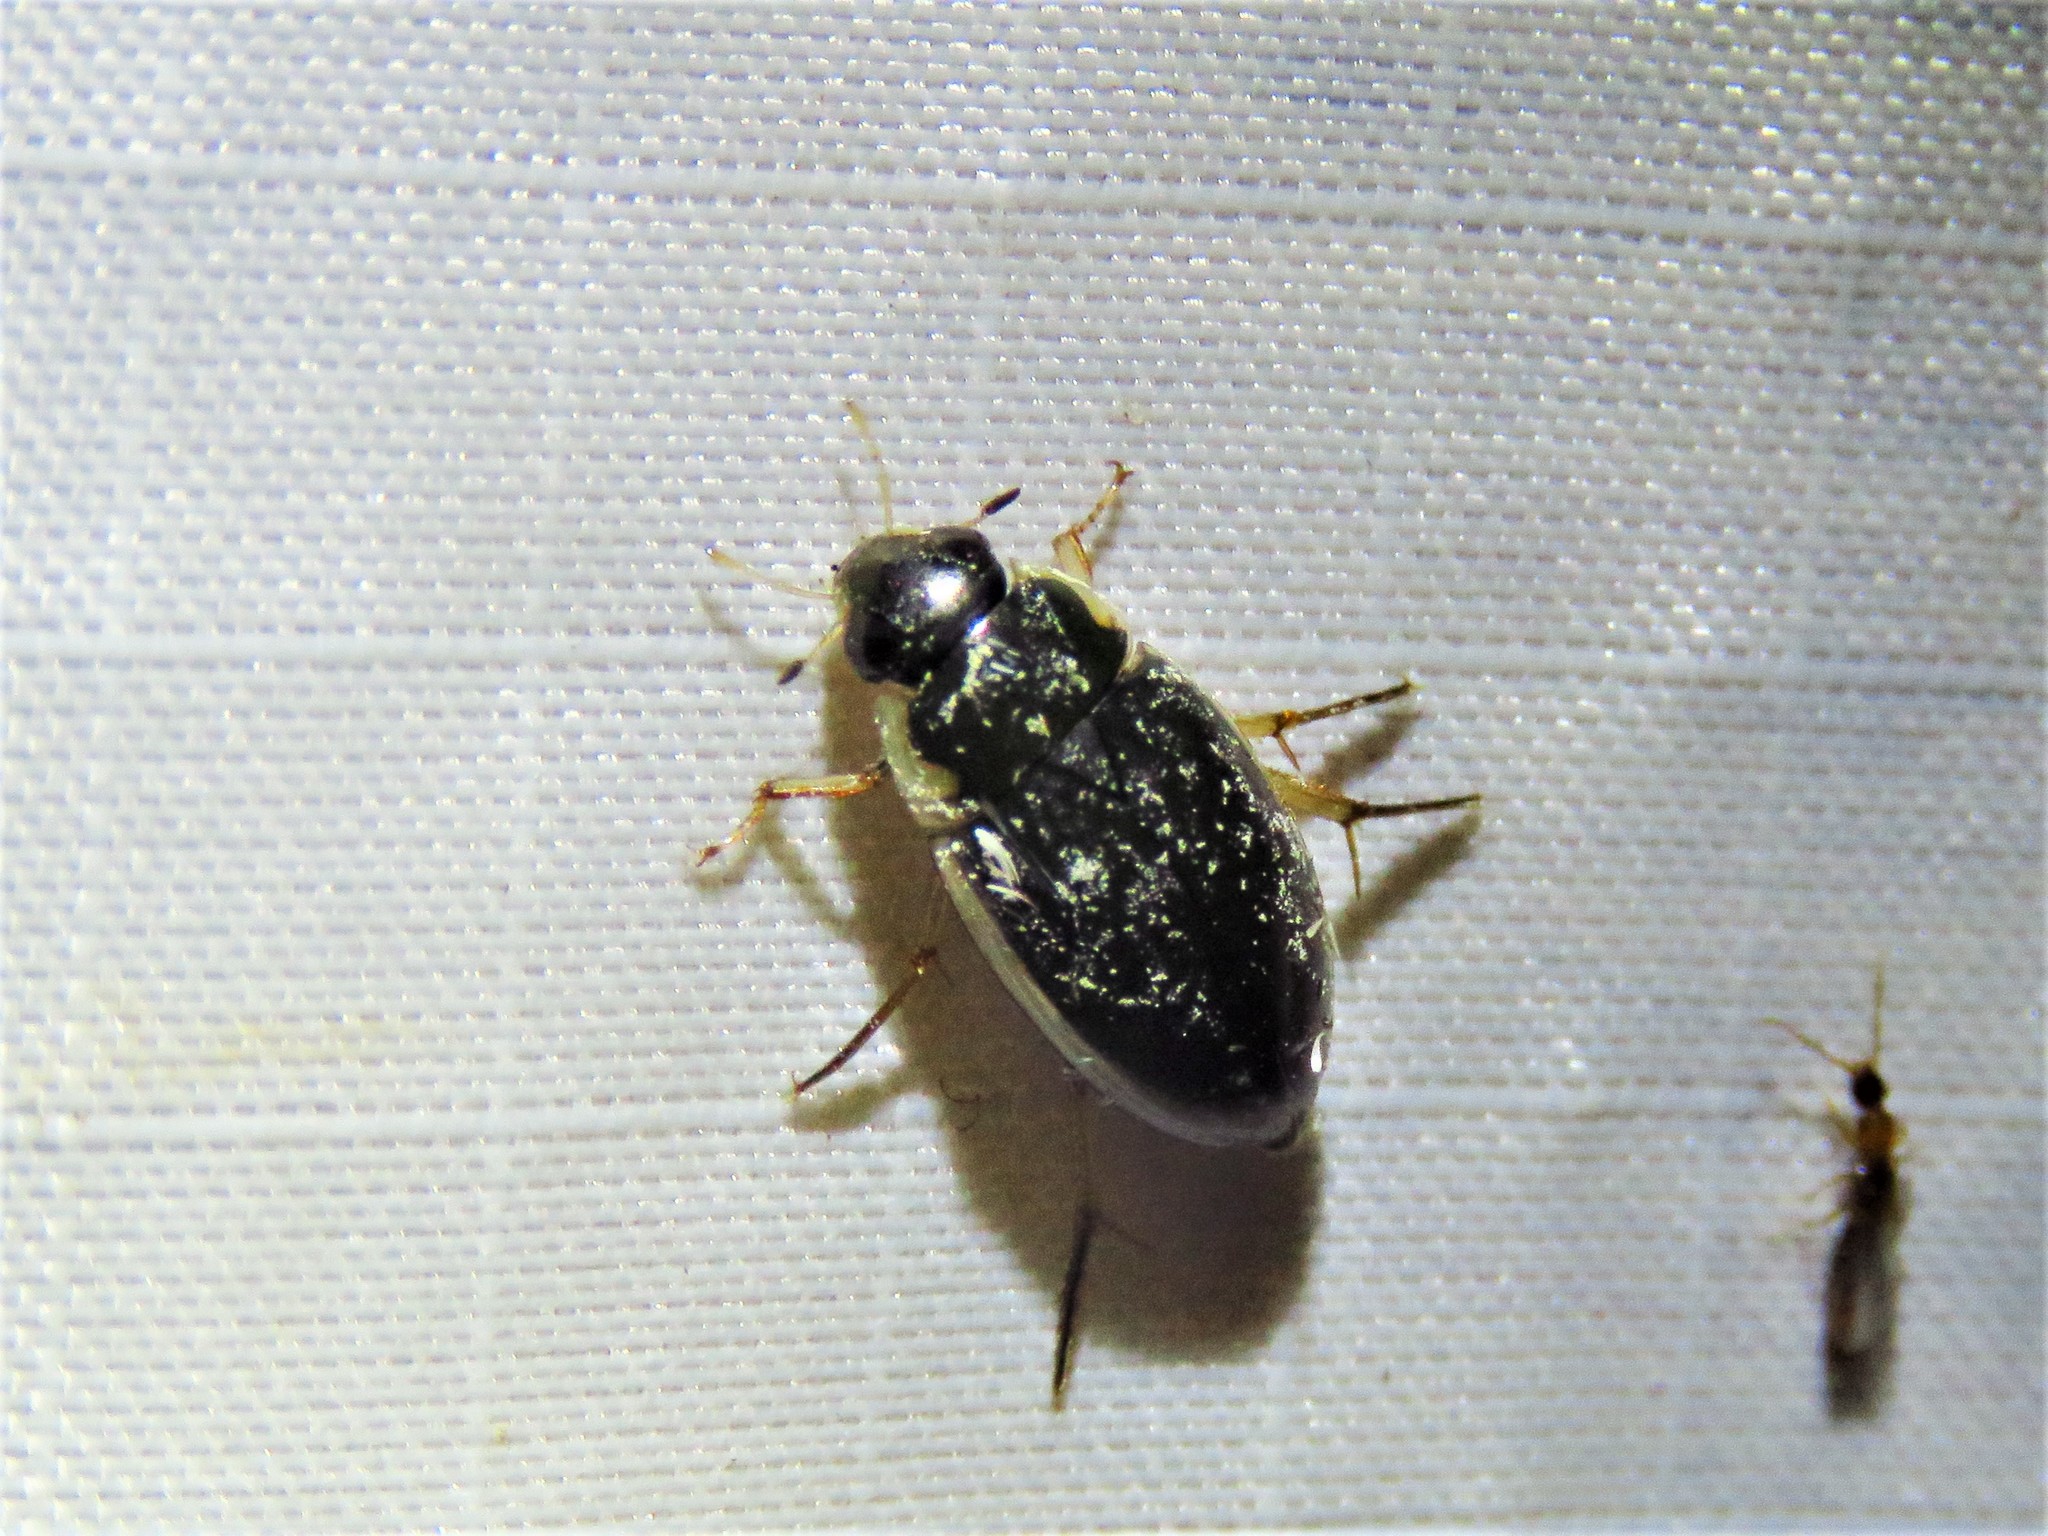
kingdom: Animalia
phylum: Arthropoda
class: Insecta
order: Coleoptera
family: Hydrophilidae
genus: Tropisternus
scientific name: Tropisternus lateralis
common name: Lateral-banded water scavenger beetle
